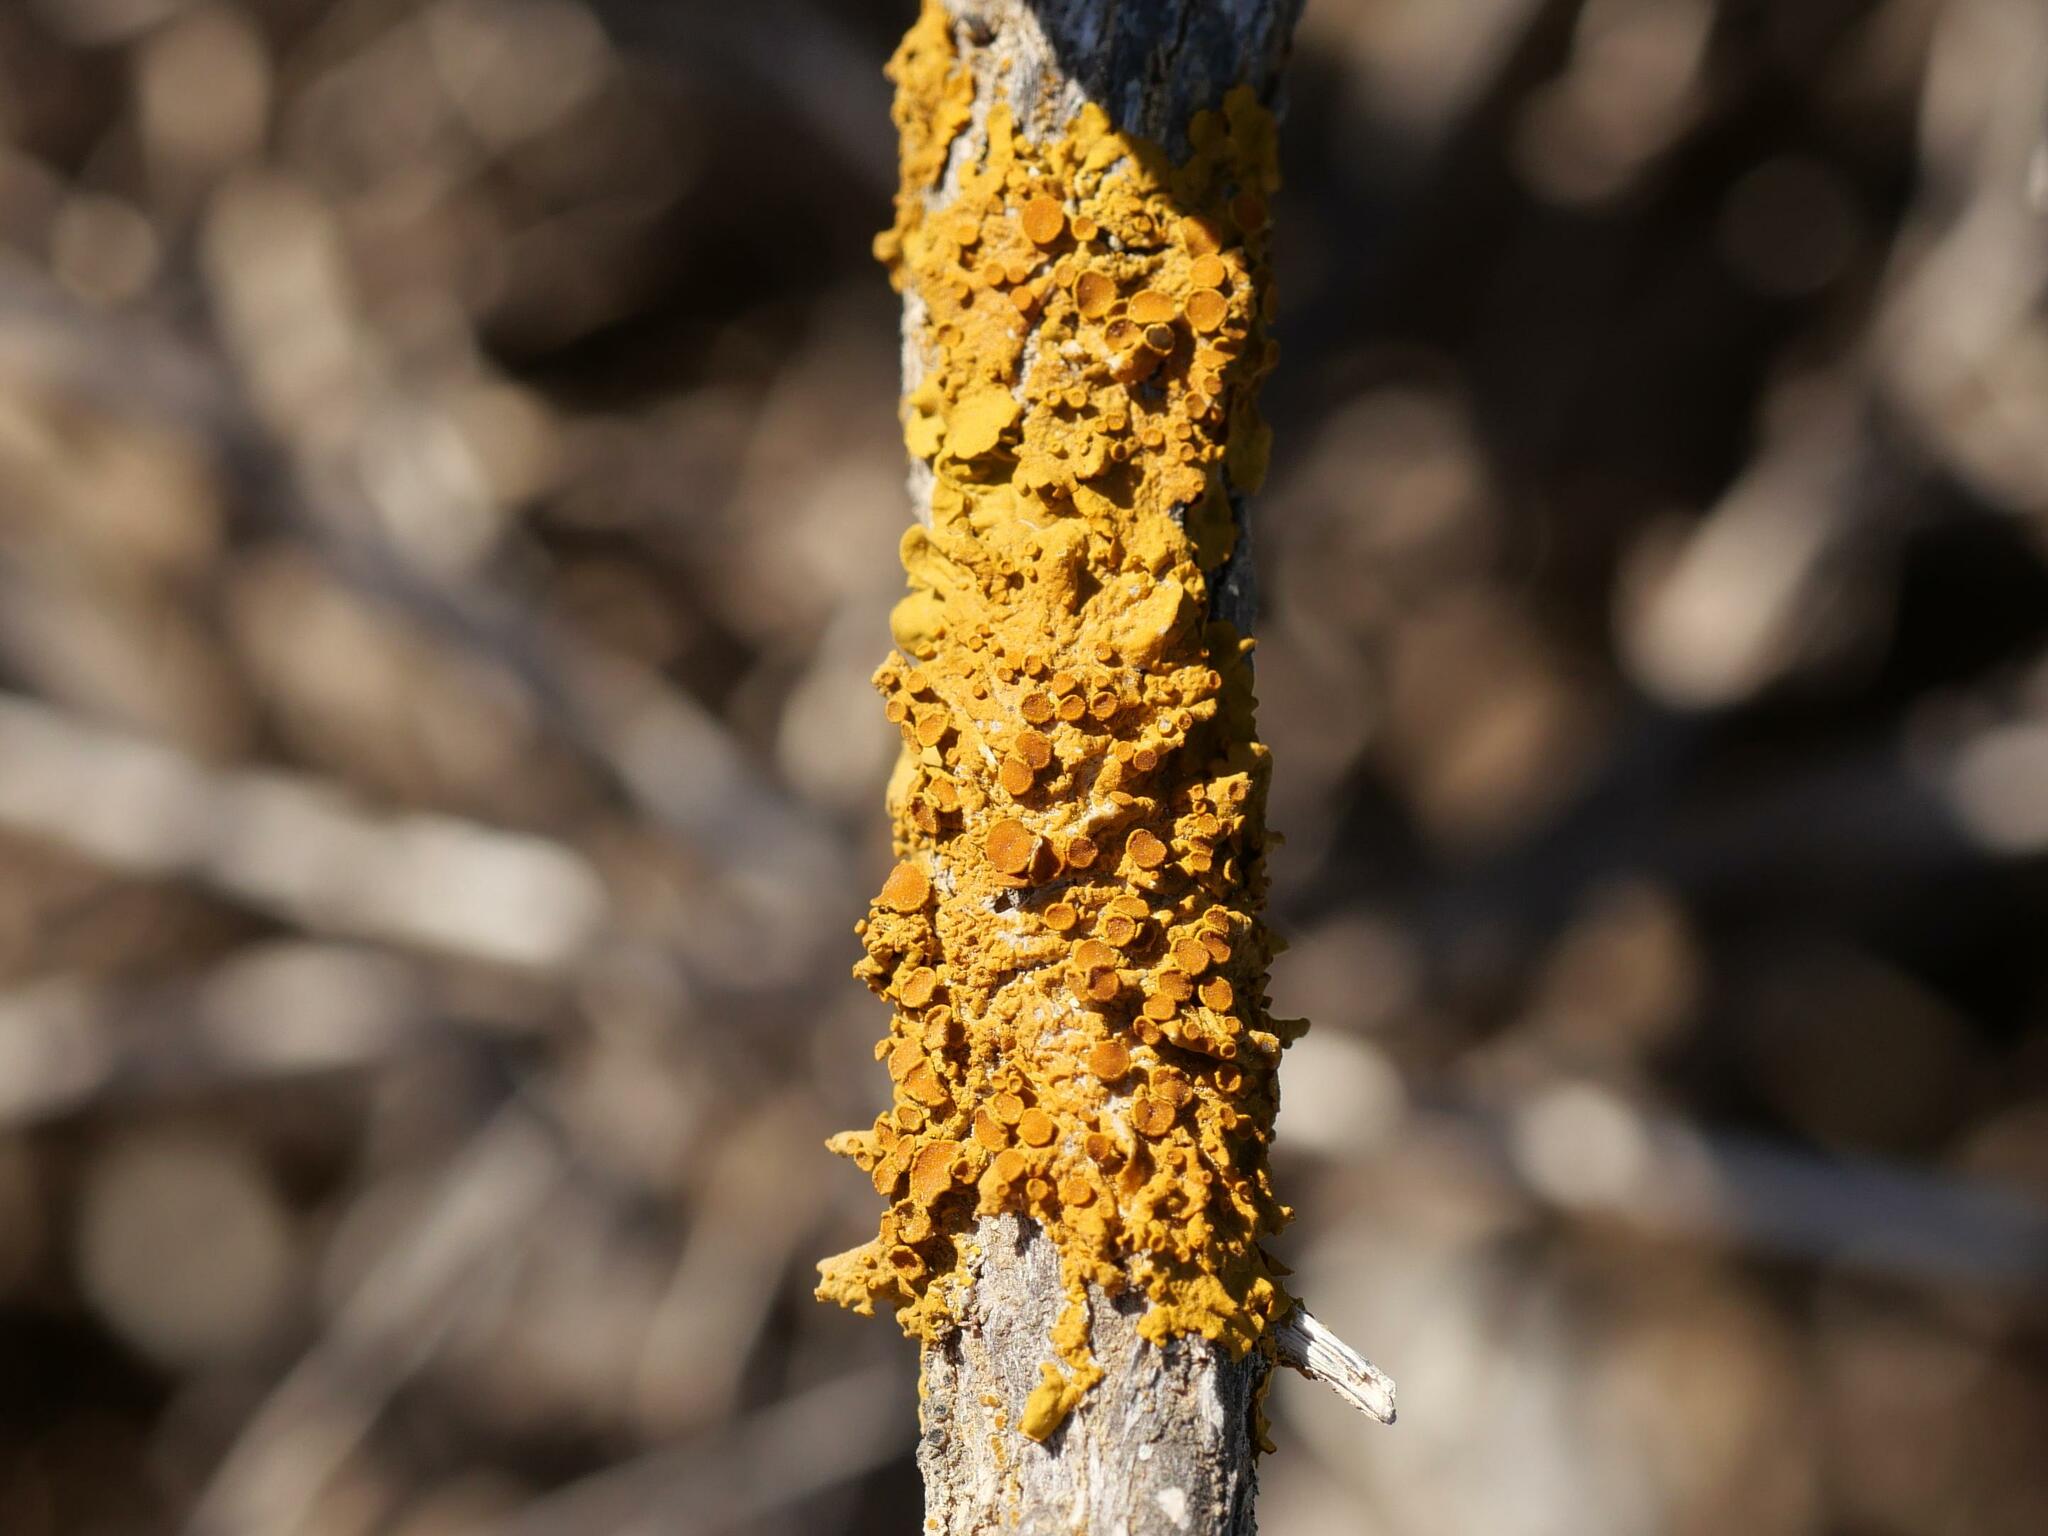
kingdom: Fungi
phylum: Ascomycota
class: Lecanoromycetes
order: Teloschistales
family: Teloschistaceae
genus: Xanthoria
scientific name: Xanthoria parietina
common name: Common orange lichen
